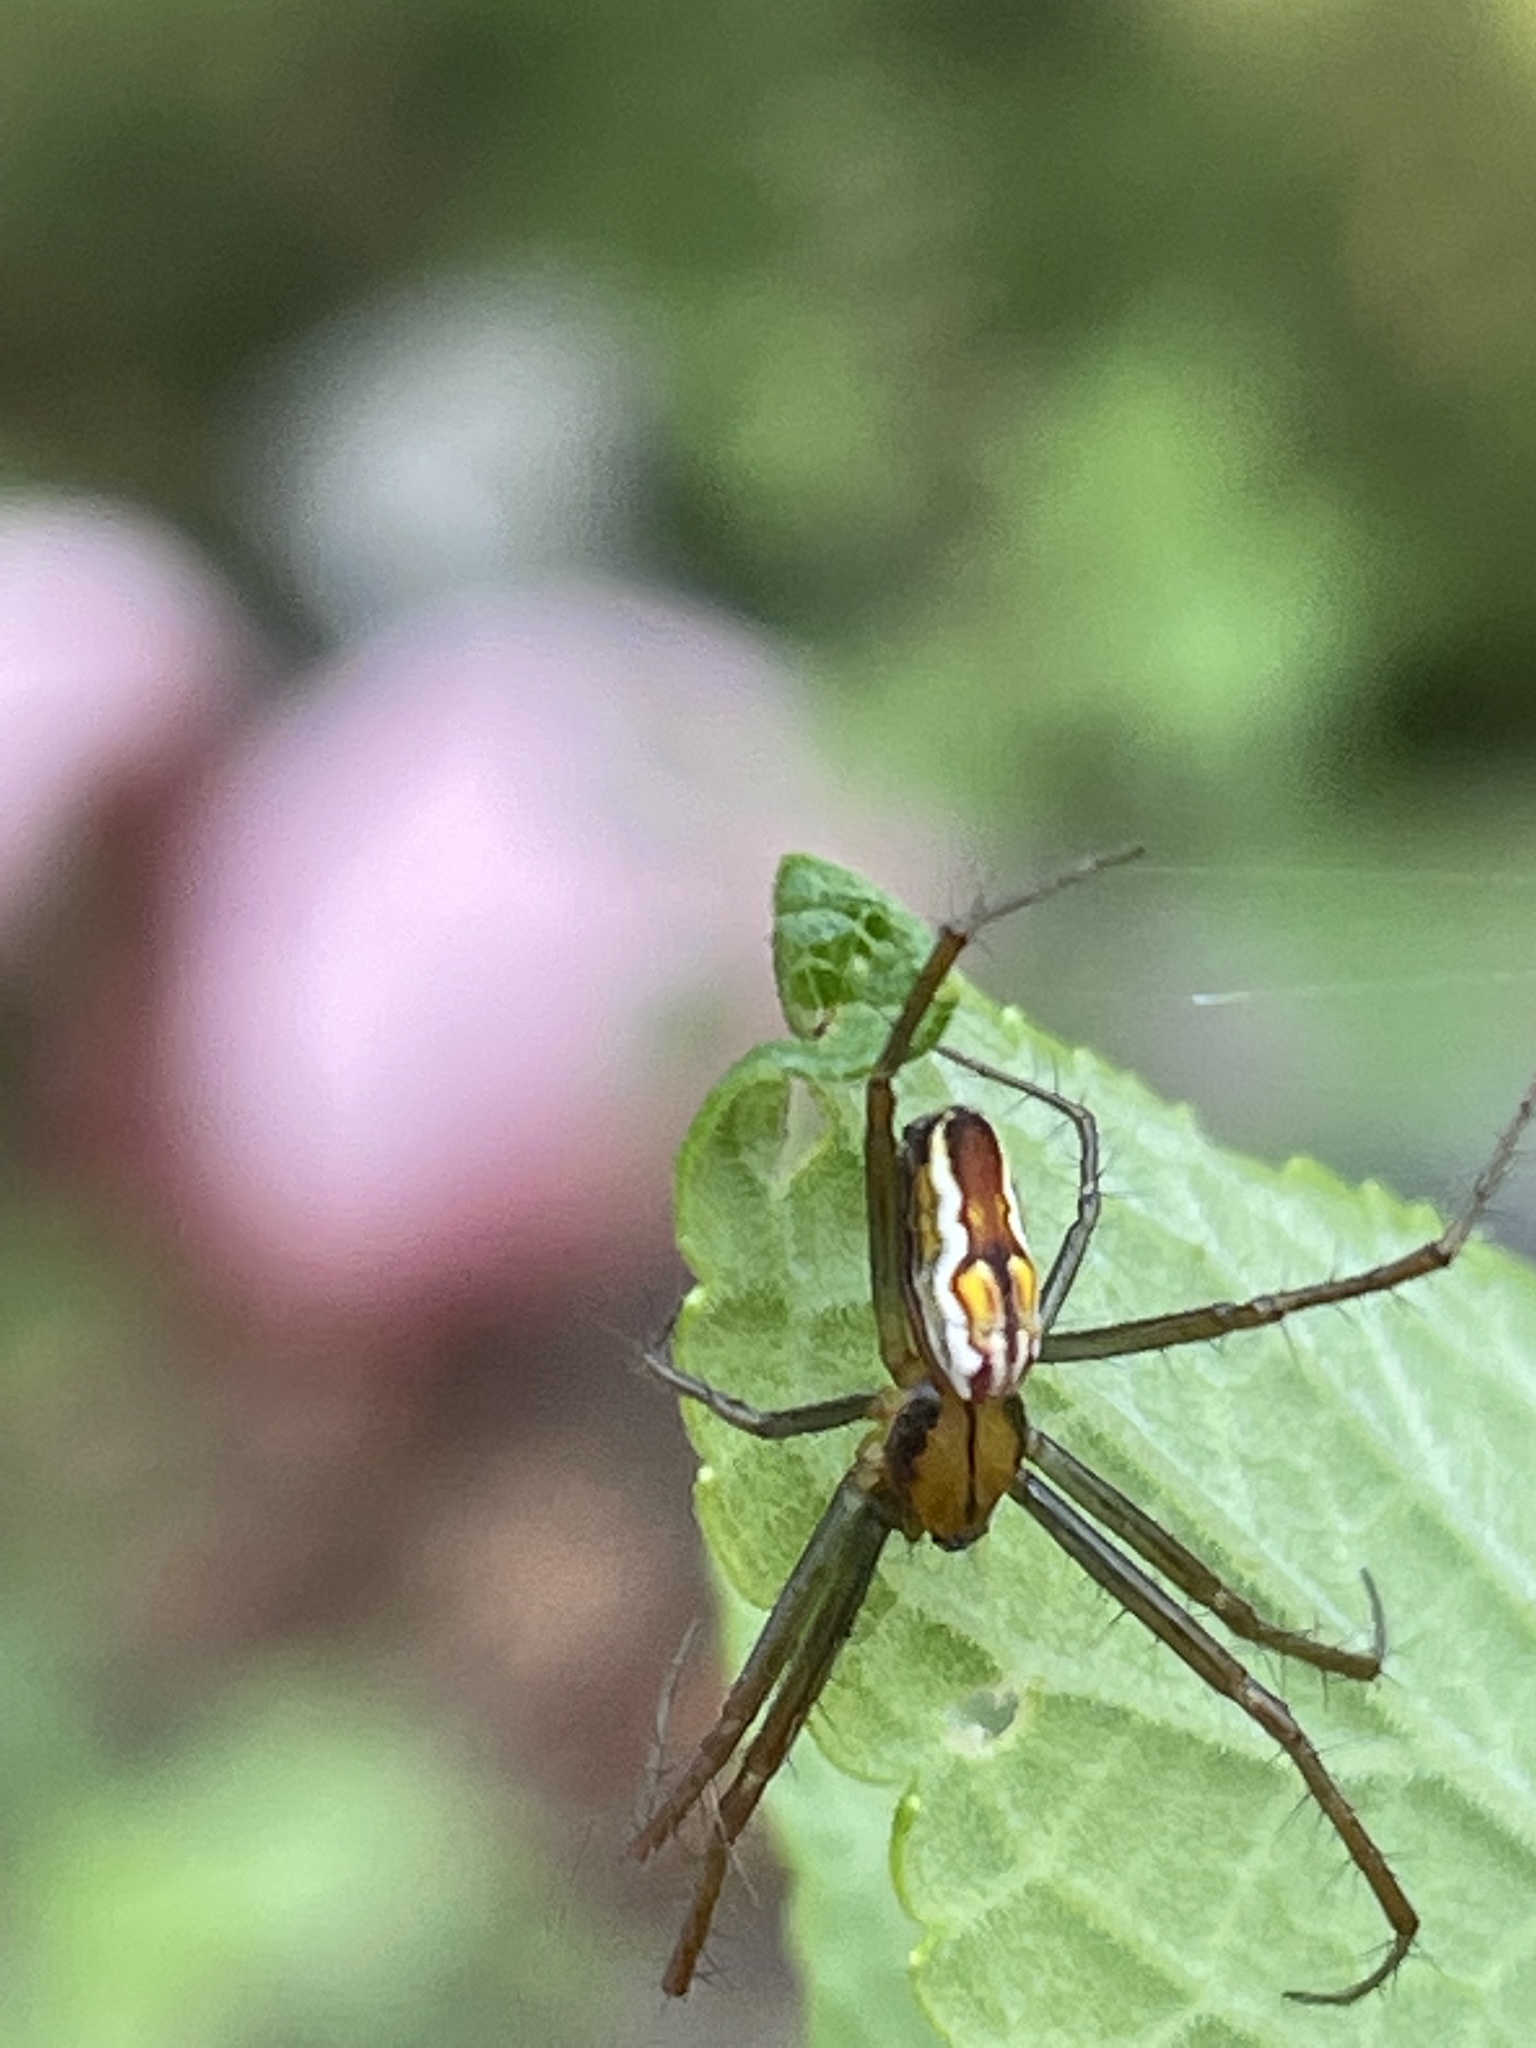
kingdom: Animalia
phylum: Arthropoda
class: Arachnida
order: Araneae
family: Araneidae
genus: Mecynogea
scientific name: Mecynogea lemniscata
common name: Orb weavers
